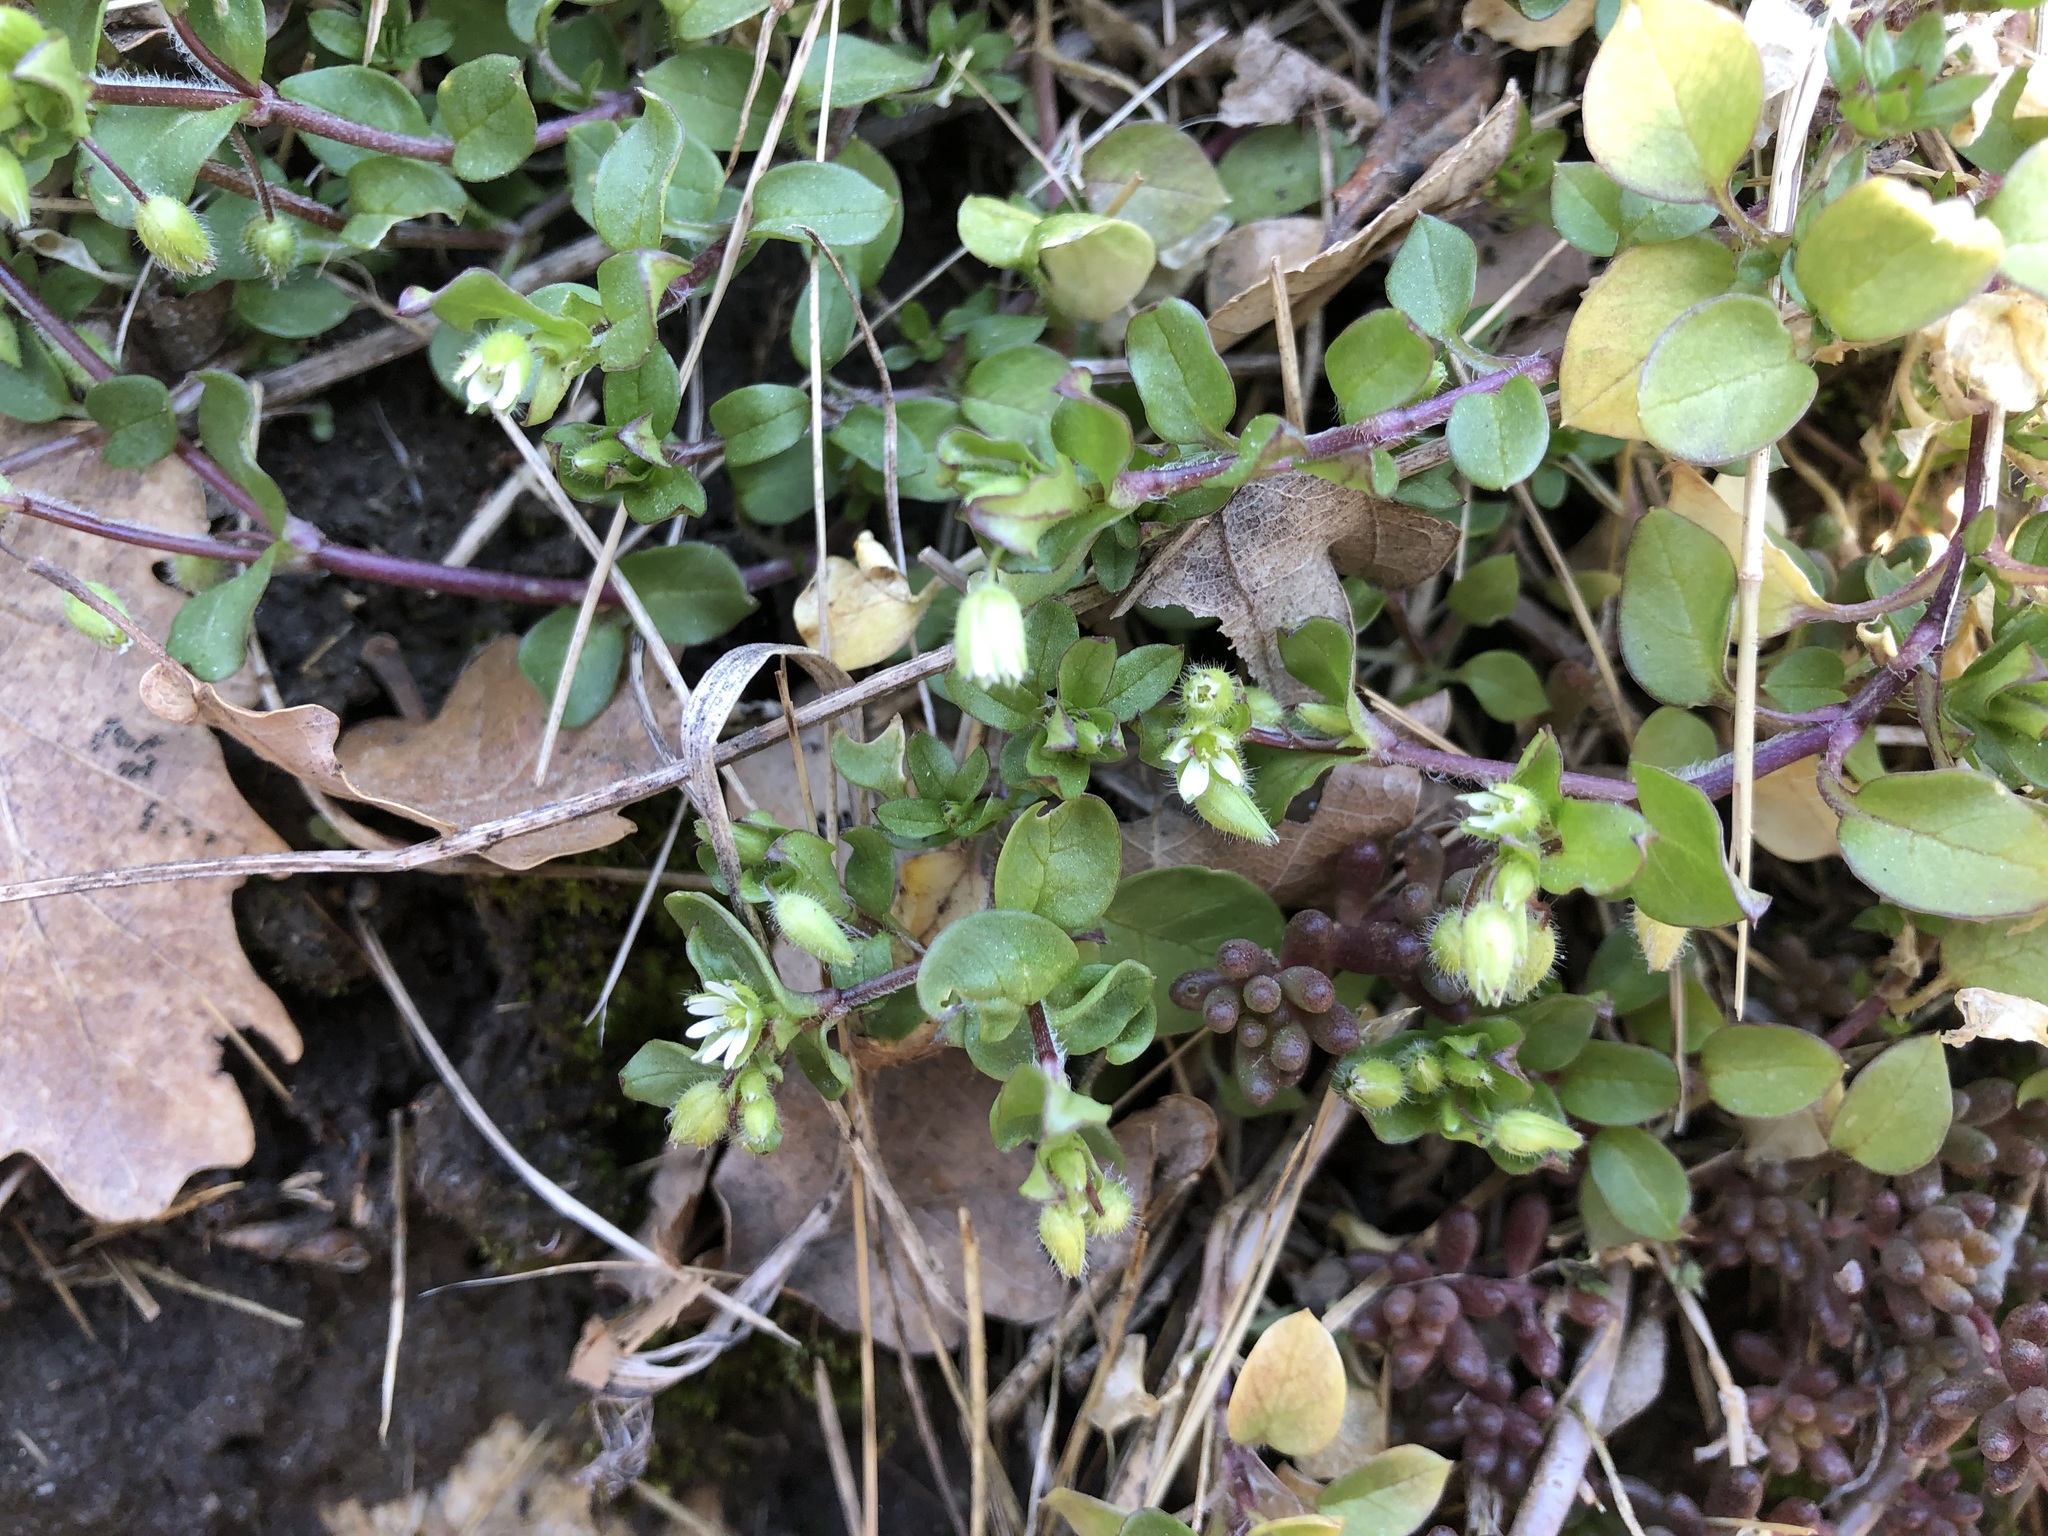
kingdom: Plantae
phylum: Tracheophyta
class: Magnoliopsida
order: Caryophyllales
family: Caryophyllaceae
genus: Stellaria
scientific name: Stellaria media
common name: Common chickweed
